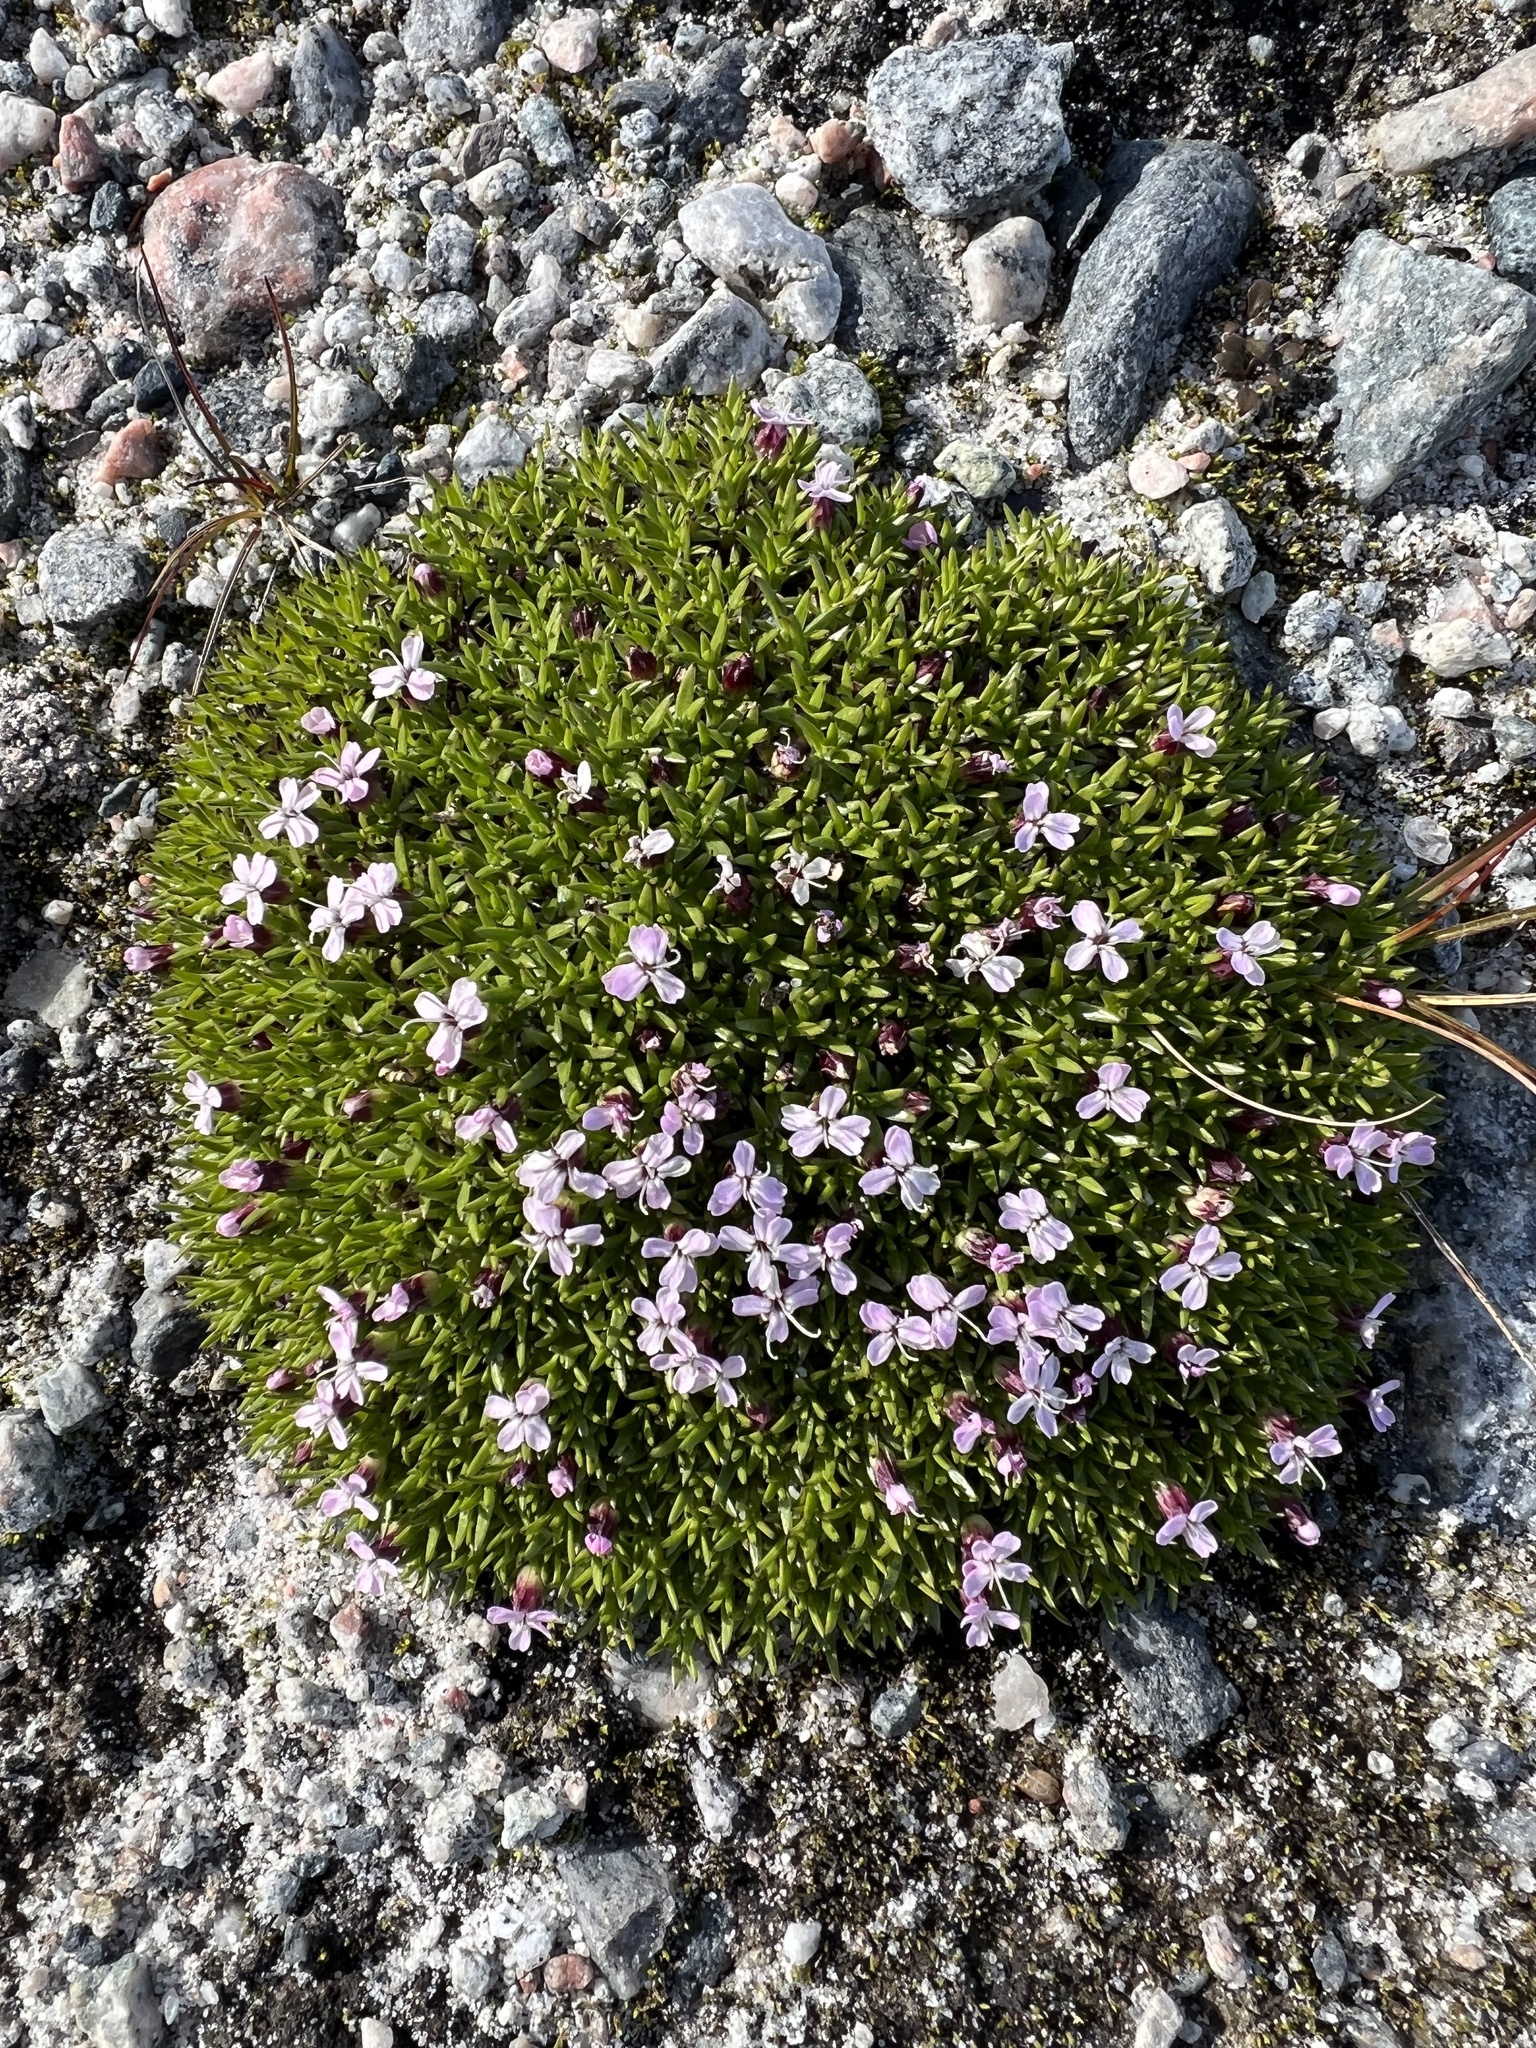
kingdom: Plantae
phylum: Tracheophyta
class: Magnoliopsida
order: Caryophyllales
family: Caryophyllaceae
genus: Silene
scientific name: Silene acaulis
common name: Moss campion
